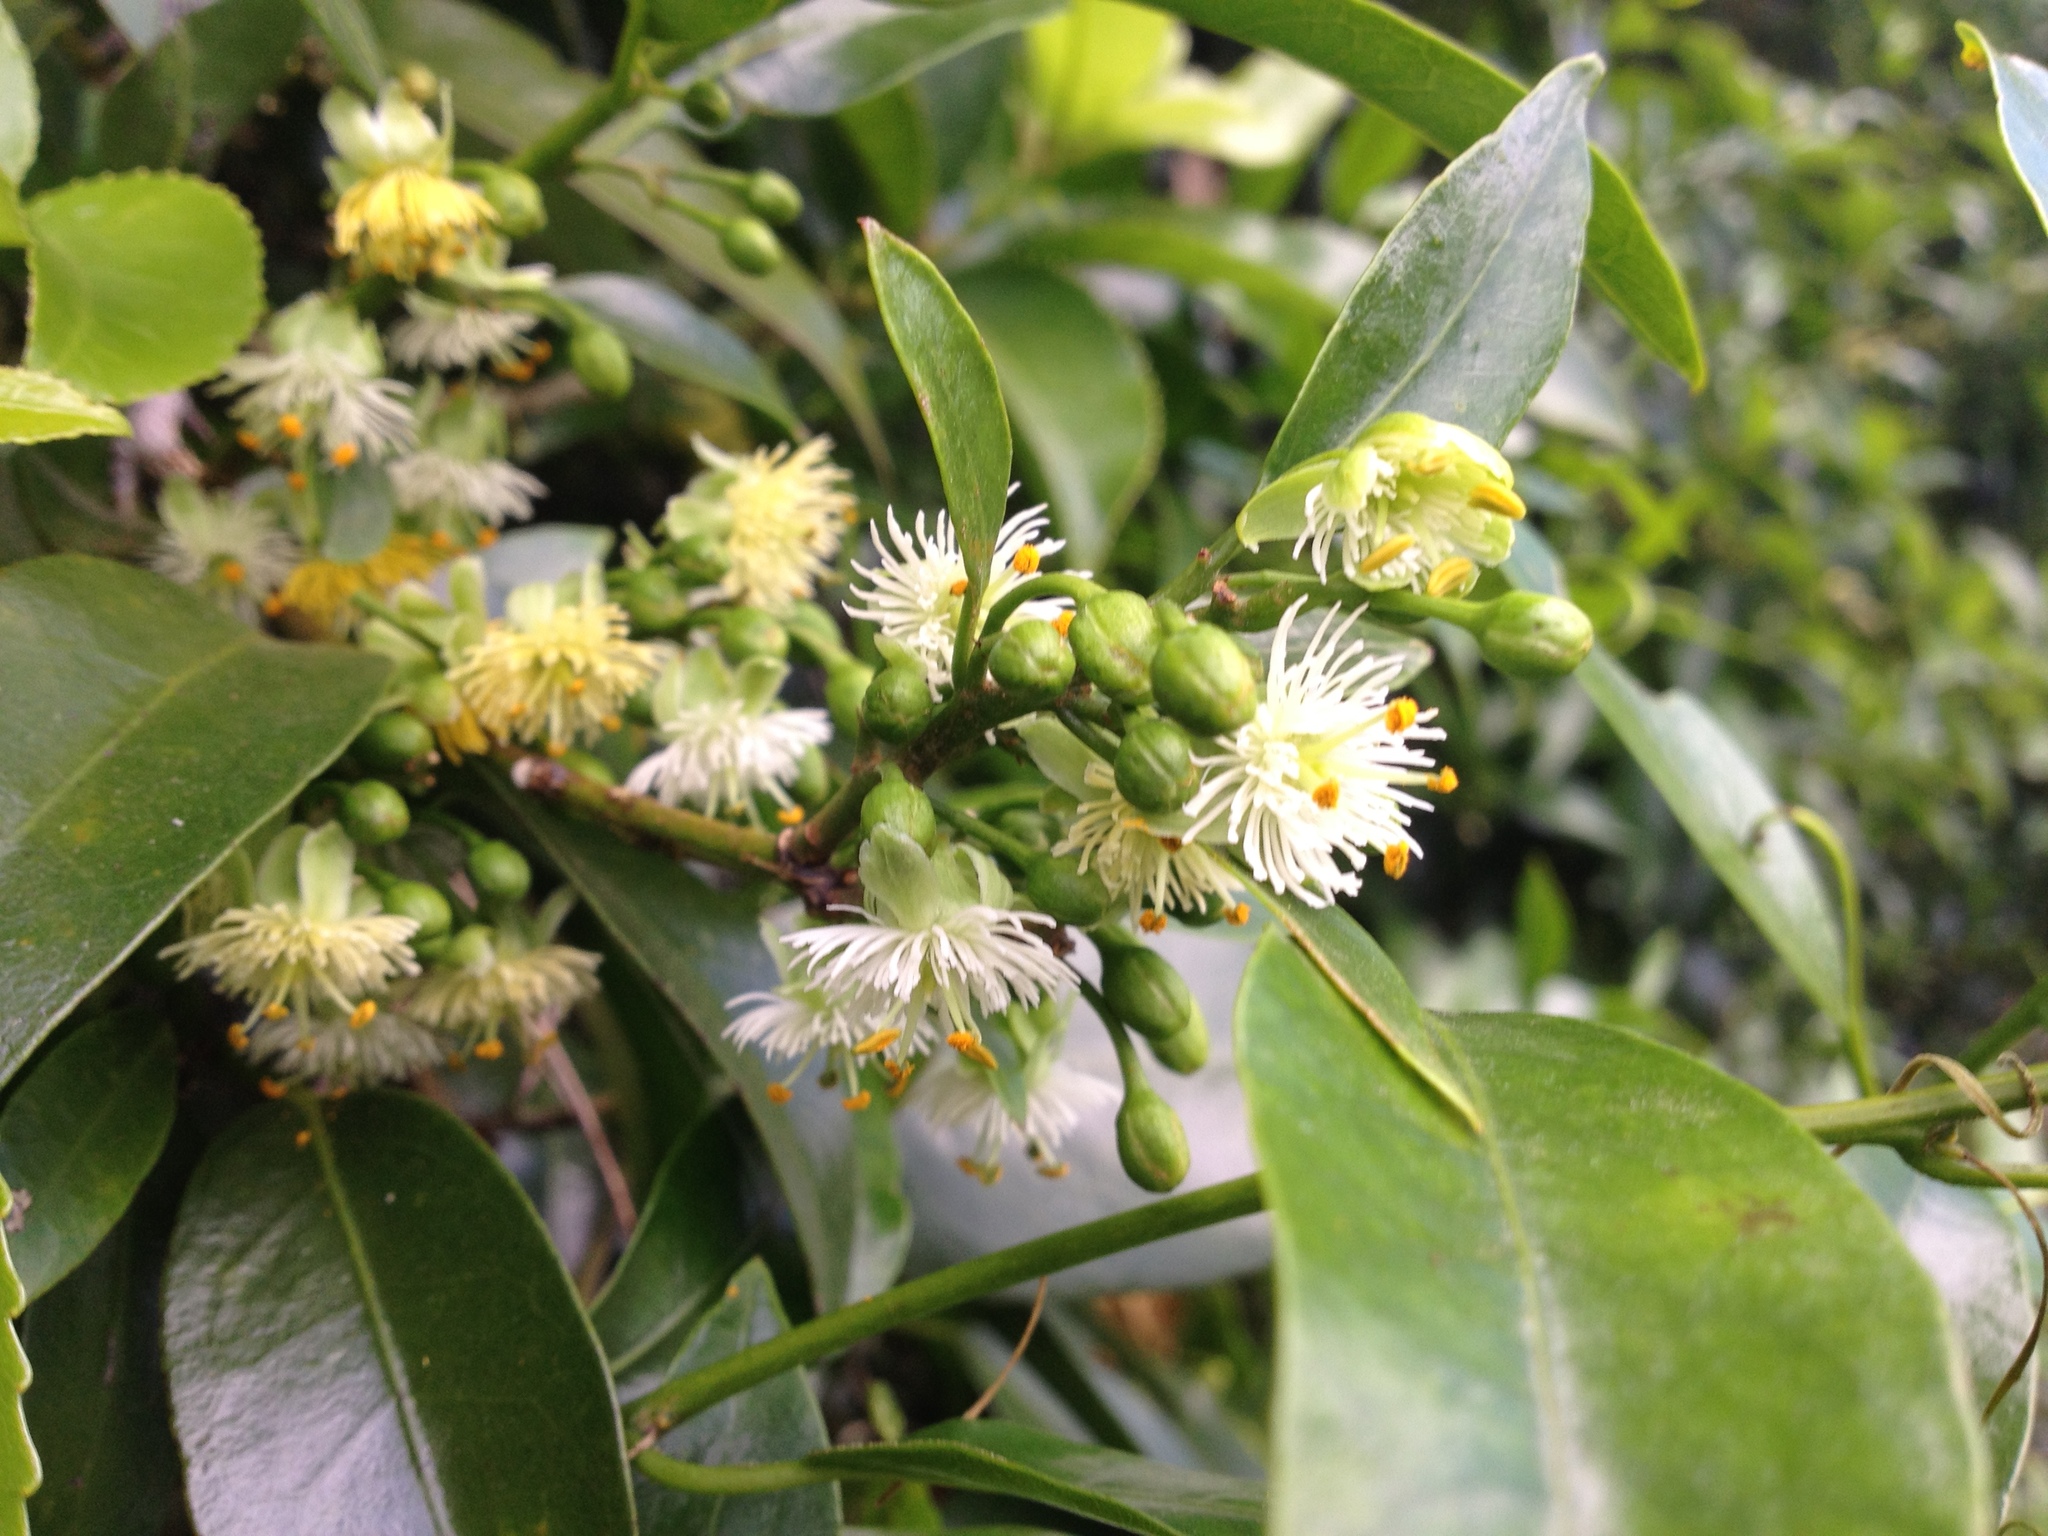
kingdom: Plantae
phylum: Tracheophyta
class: Magnoliopsida
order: Malpighiales
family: Passifloraceae
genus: Passiflora
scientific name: Passiflora tetrandra
